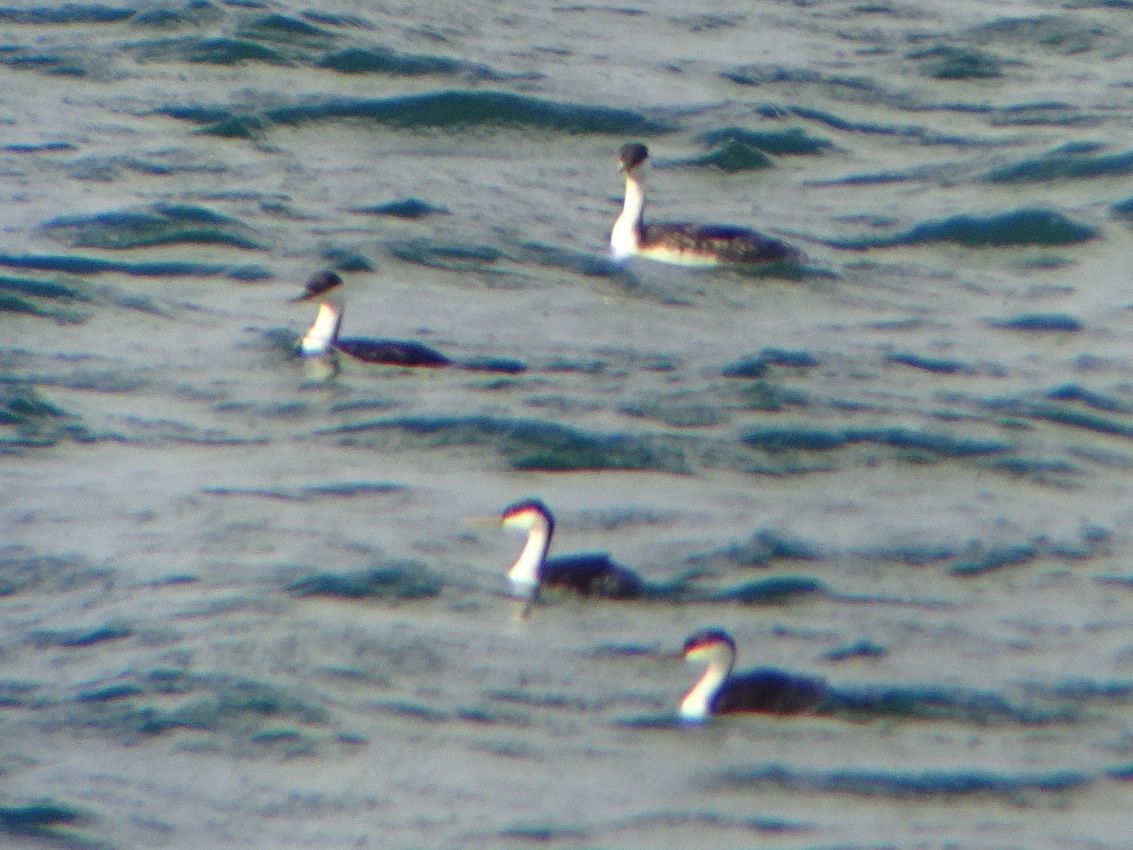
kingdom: Animalia
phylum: Chordata
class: Aves
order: Podicipediformes
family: Podicipedidae
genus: Aechmophorus
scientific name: Aechmophorus occidentalis
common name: Western grebe
